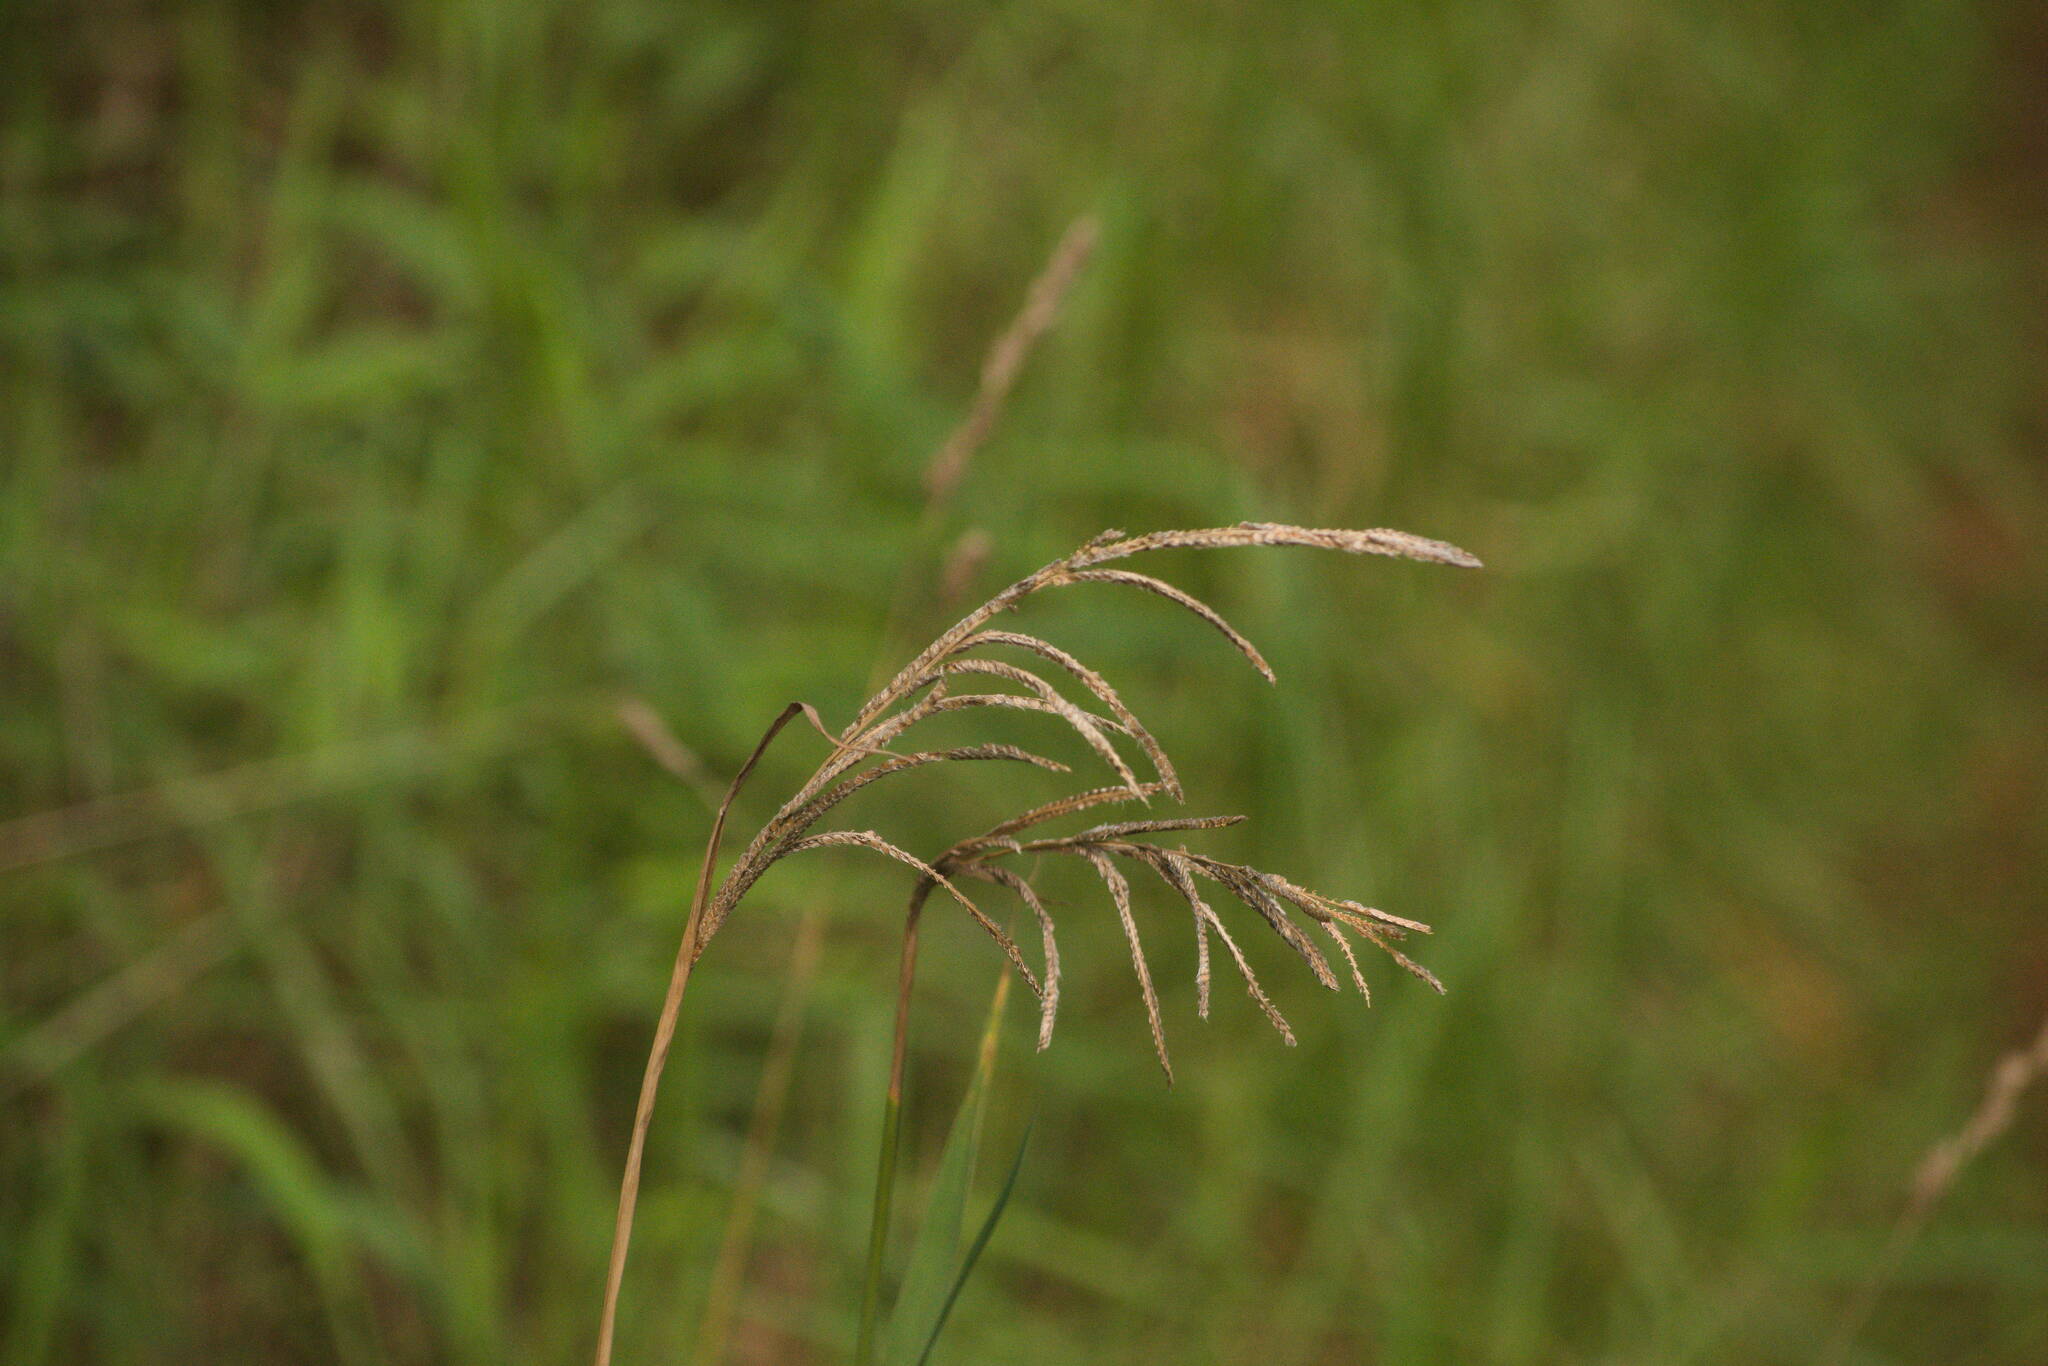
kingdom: Plantae
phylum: Tracheophyta
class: Liliopsida
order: Poales
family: Poaceae
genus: Paspalum
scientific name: Paspalum urvillei
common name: Vasey's grass
